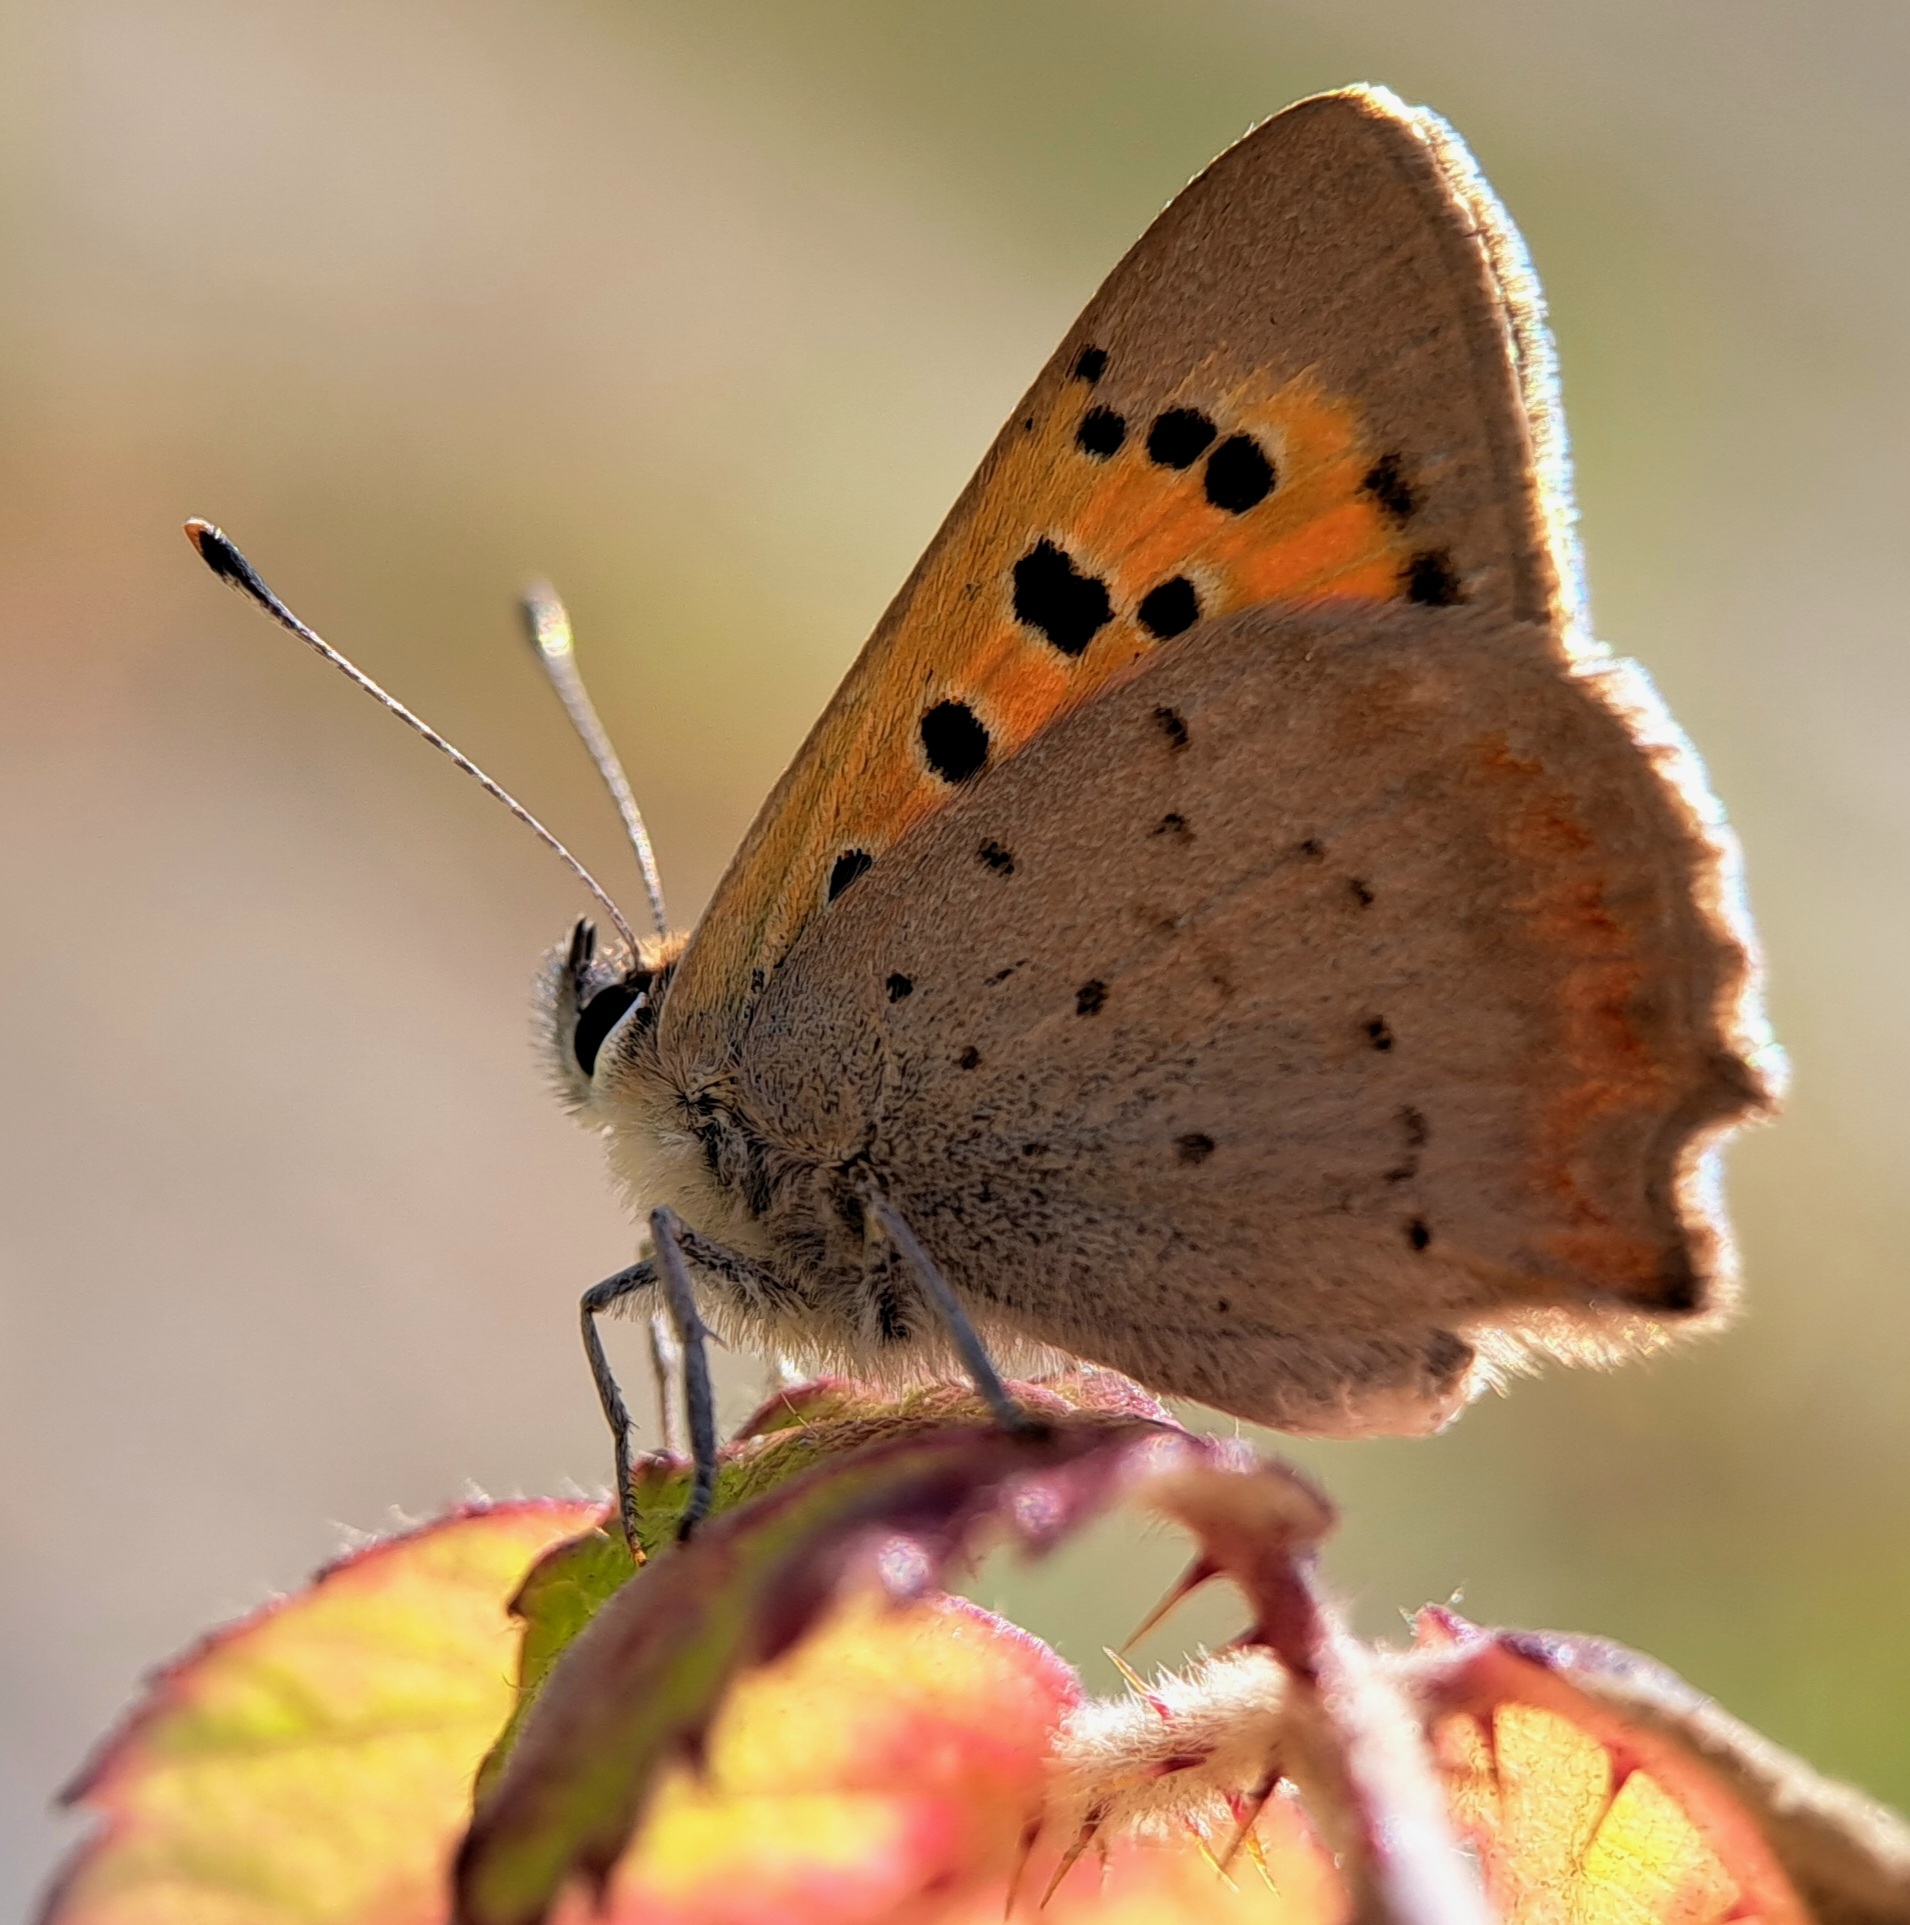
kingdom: Animalia
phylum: Arthropoda
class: Insecta
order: Lepidoptera
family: Lycaenidae
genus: Lycaena
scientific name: Lycaena phlaeas
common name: Small copper
